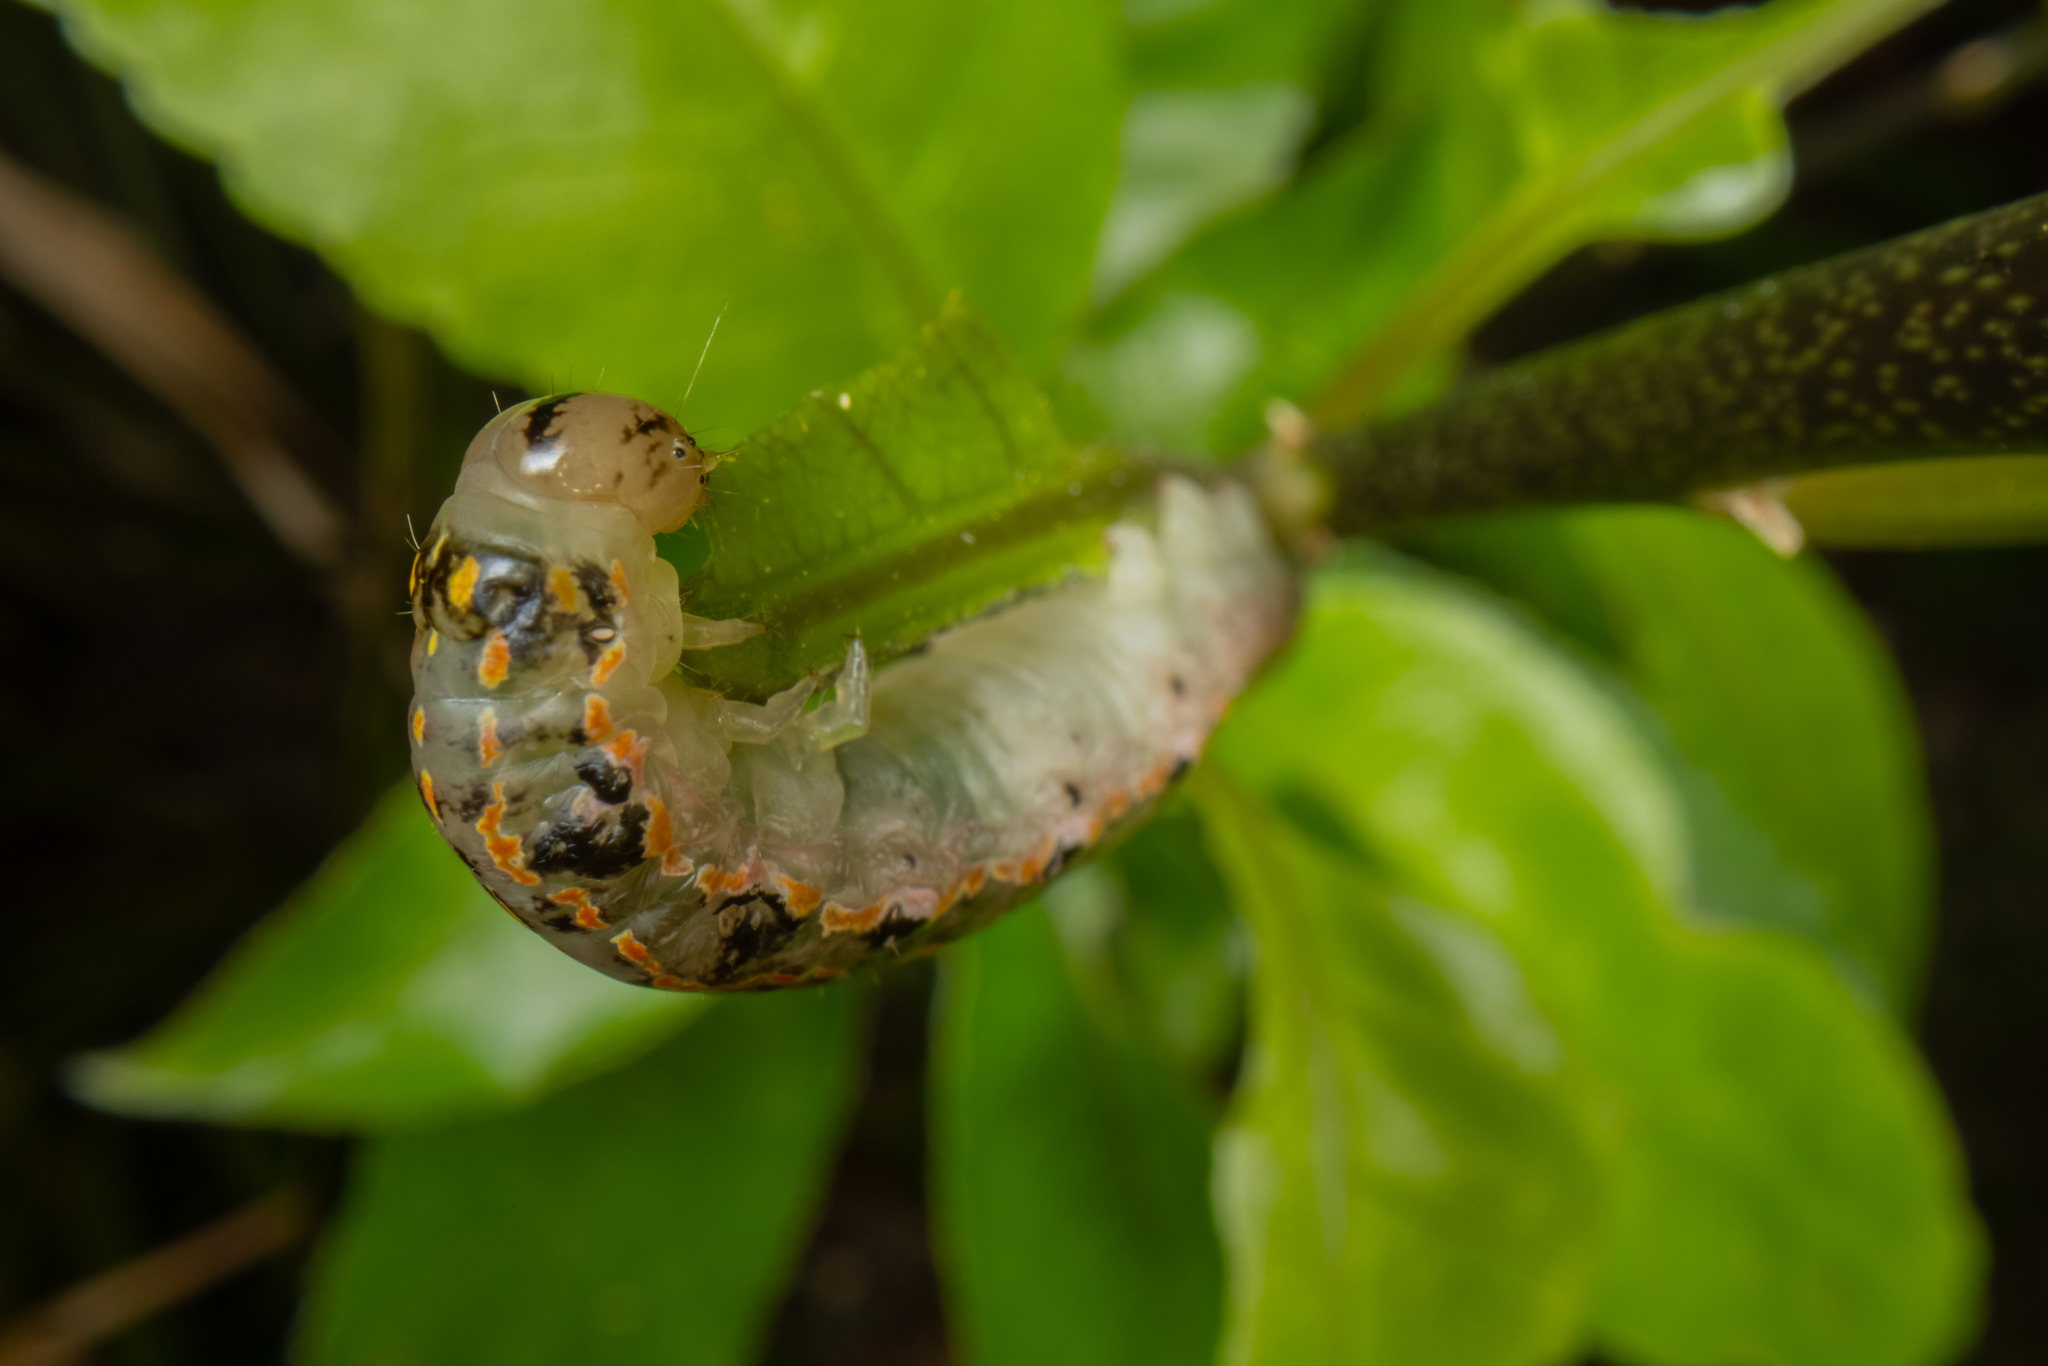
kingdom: Animalia
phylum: Arthropoda
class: Insecta
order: Lepidoptera
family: Noctuidae
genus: Austramathes
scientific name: Austramathes purpurea
